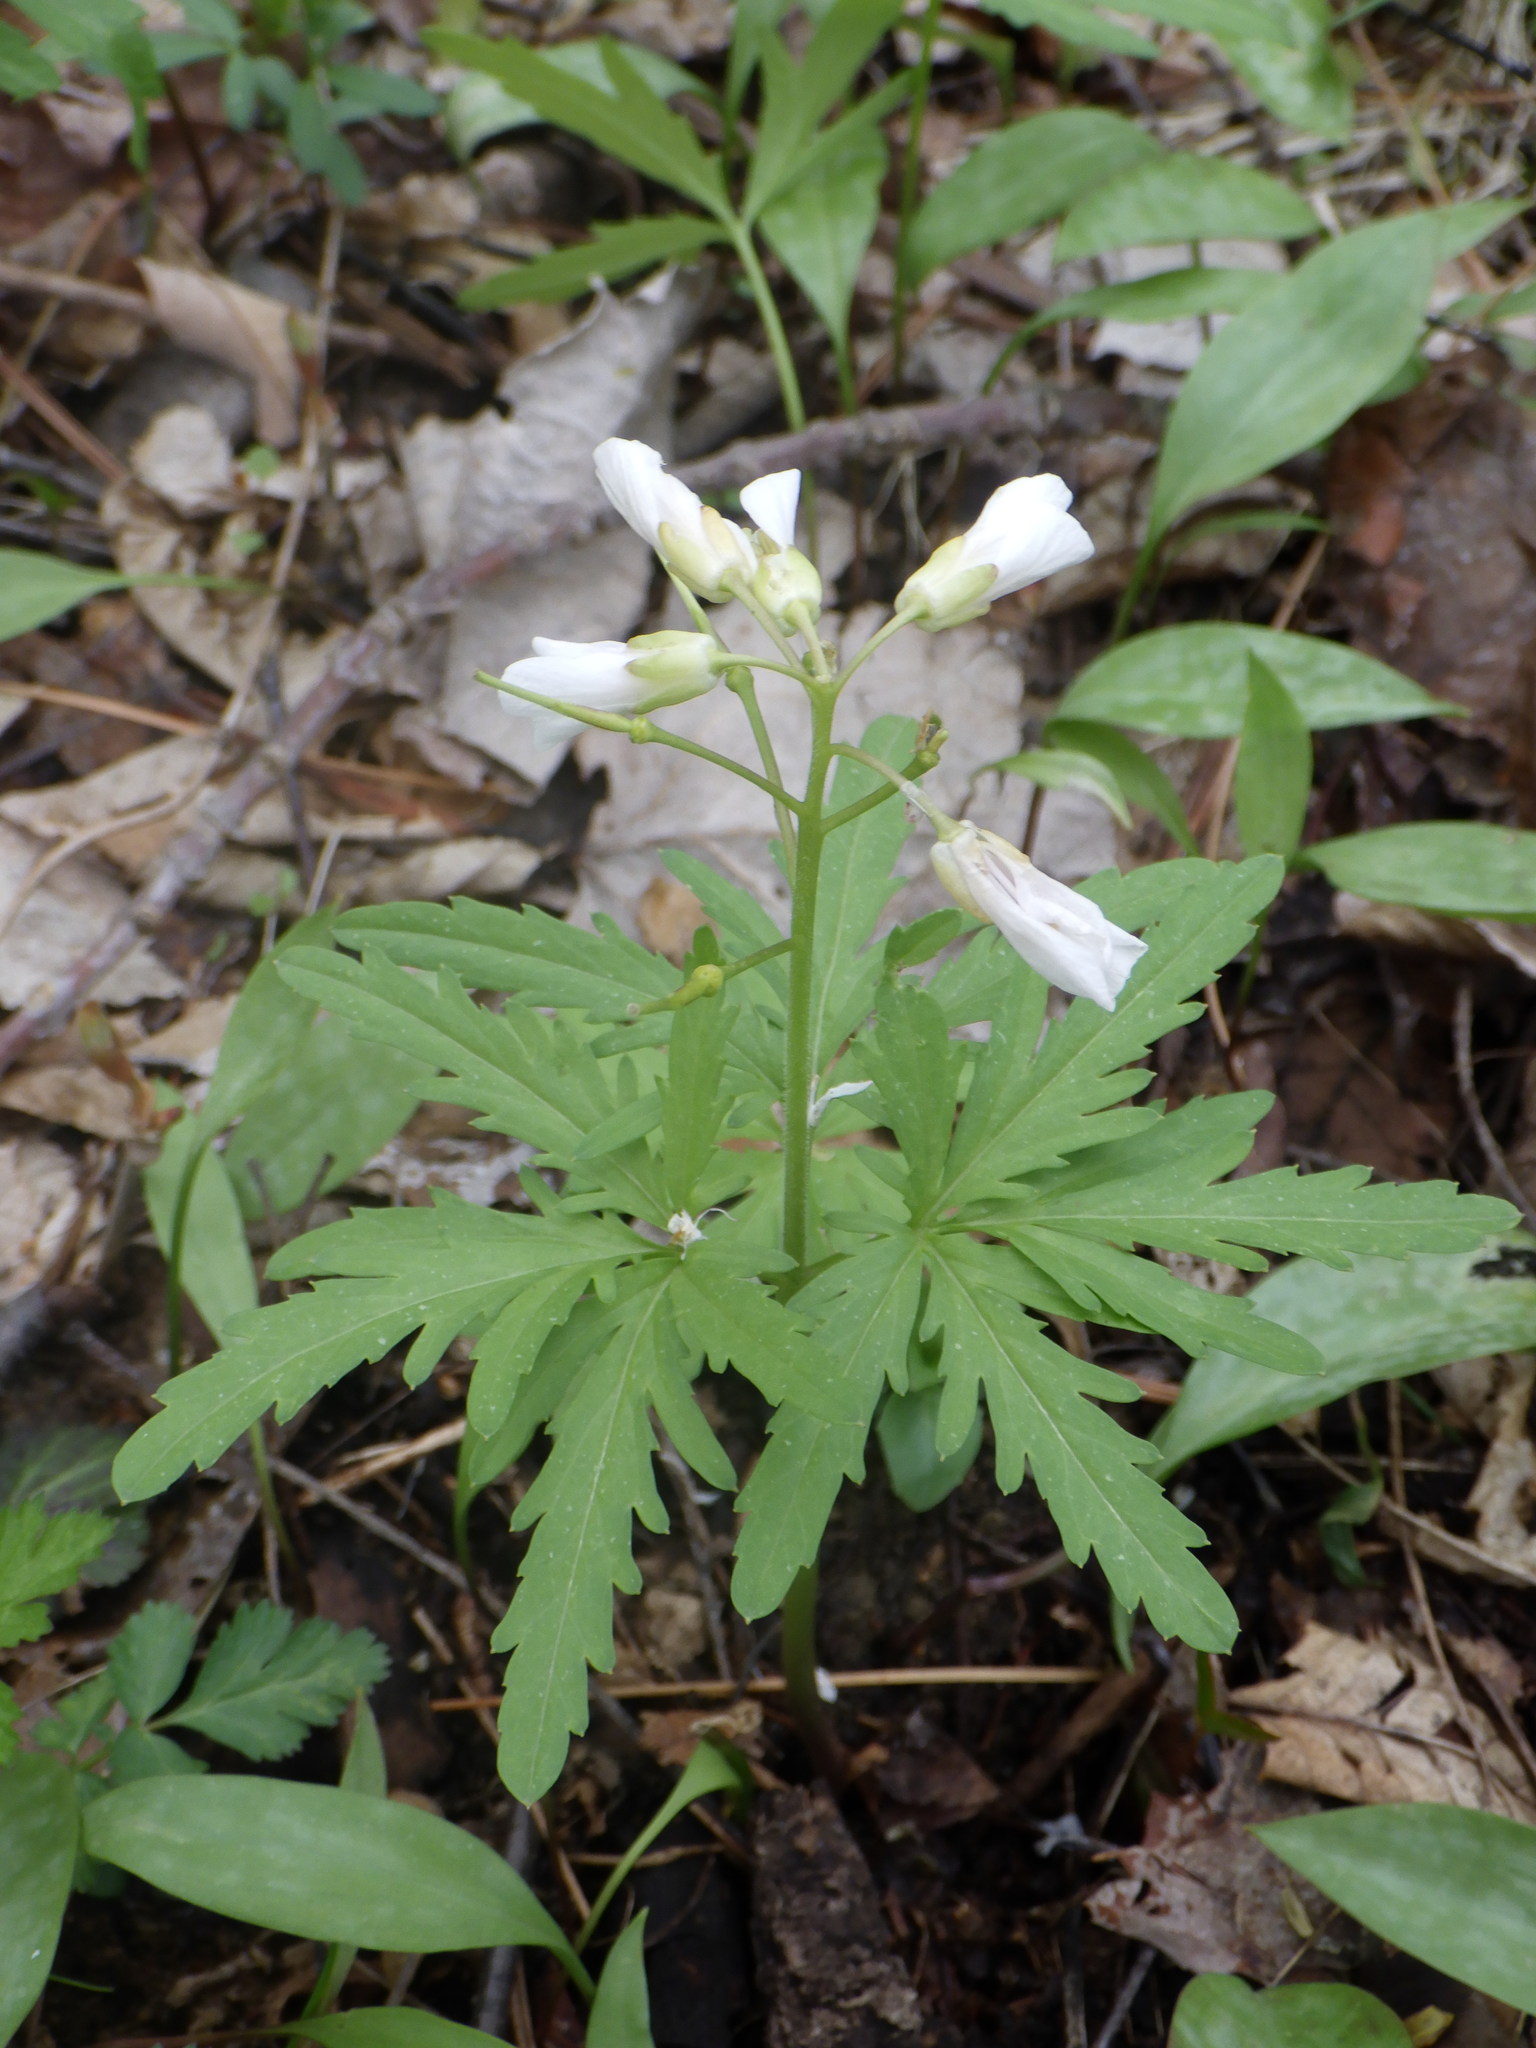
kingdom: Plantae
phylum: Tracheophyta
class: Magnoliopsida
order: Brassicales
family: Brassicaceae
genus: Cardamine
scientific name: Cardamine concatenata
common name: Cut-leaf toothcup
